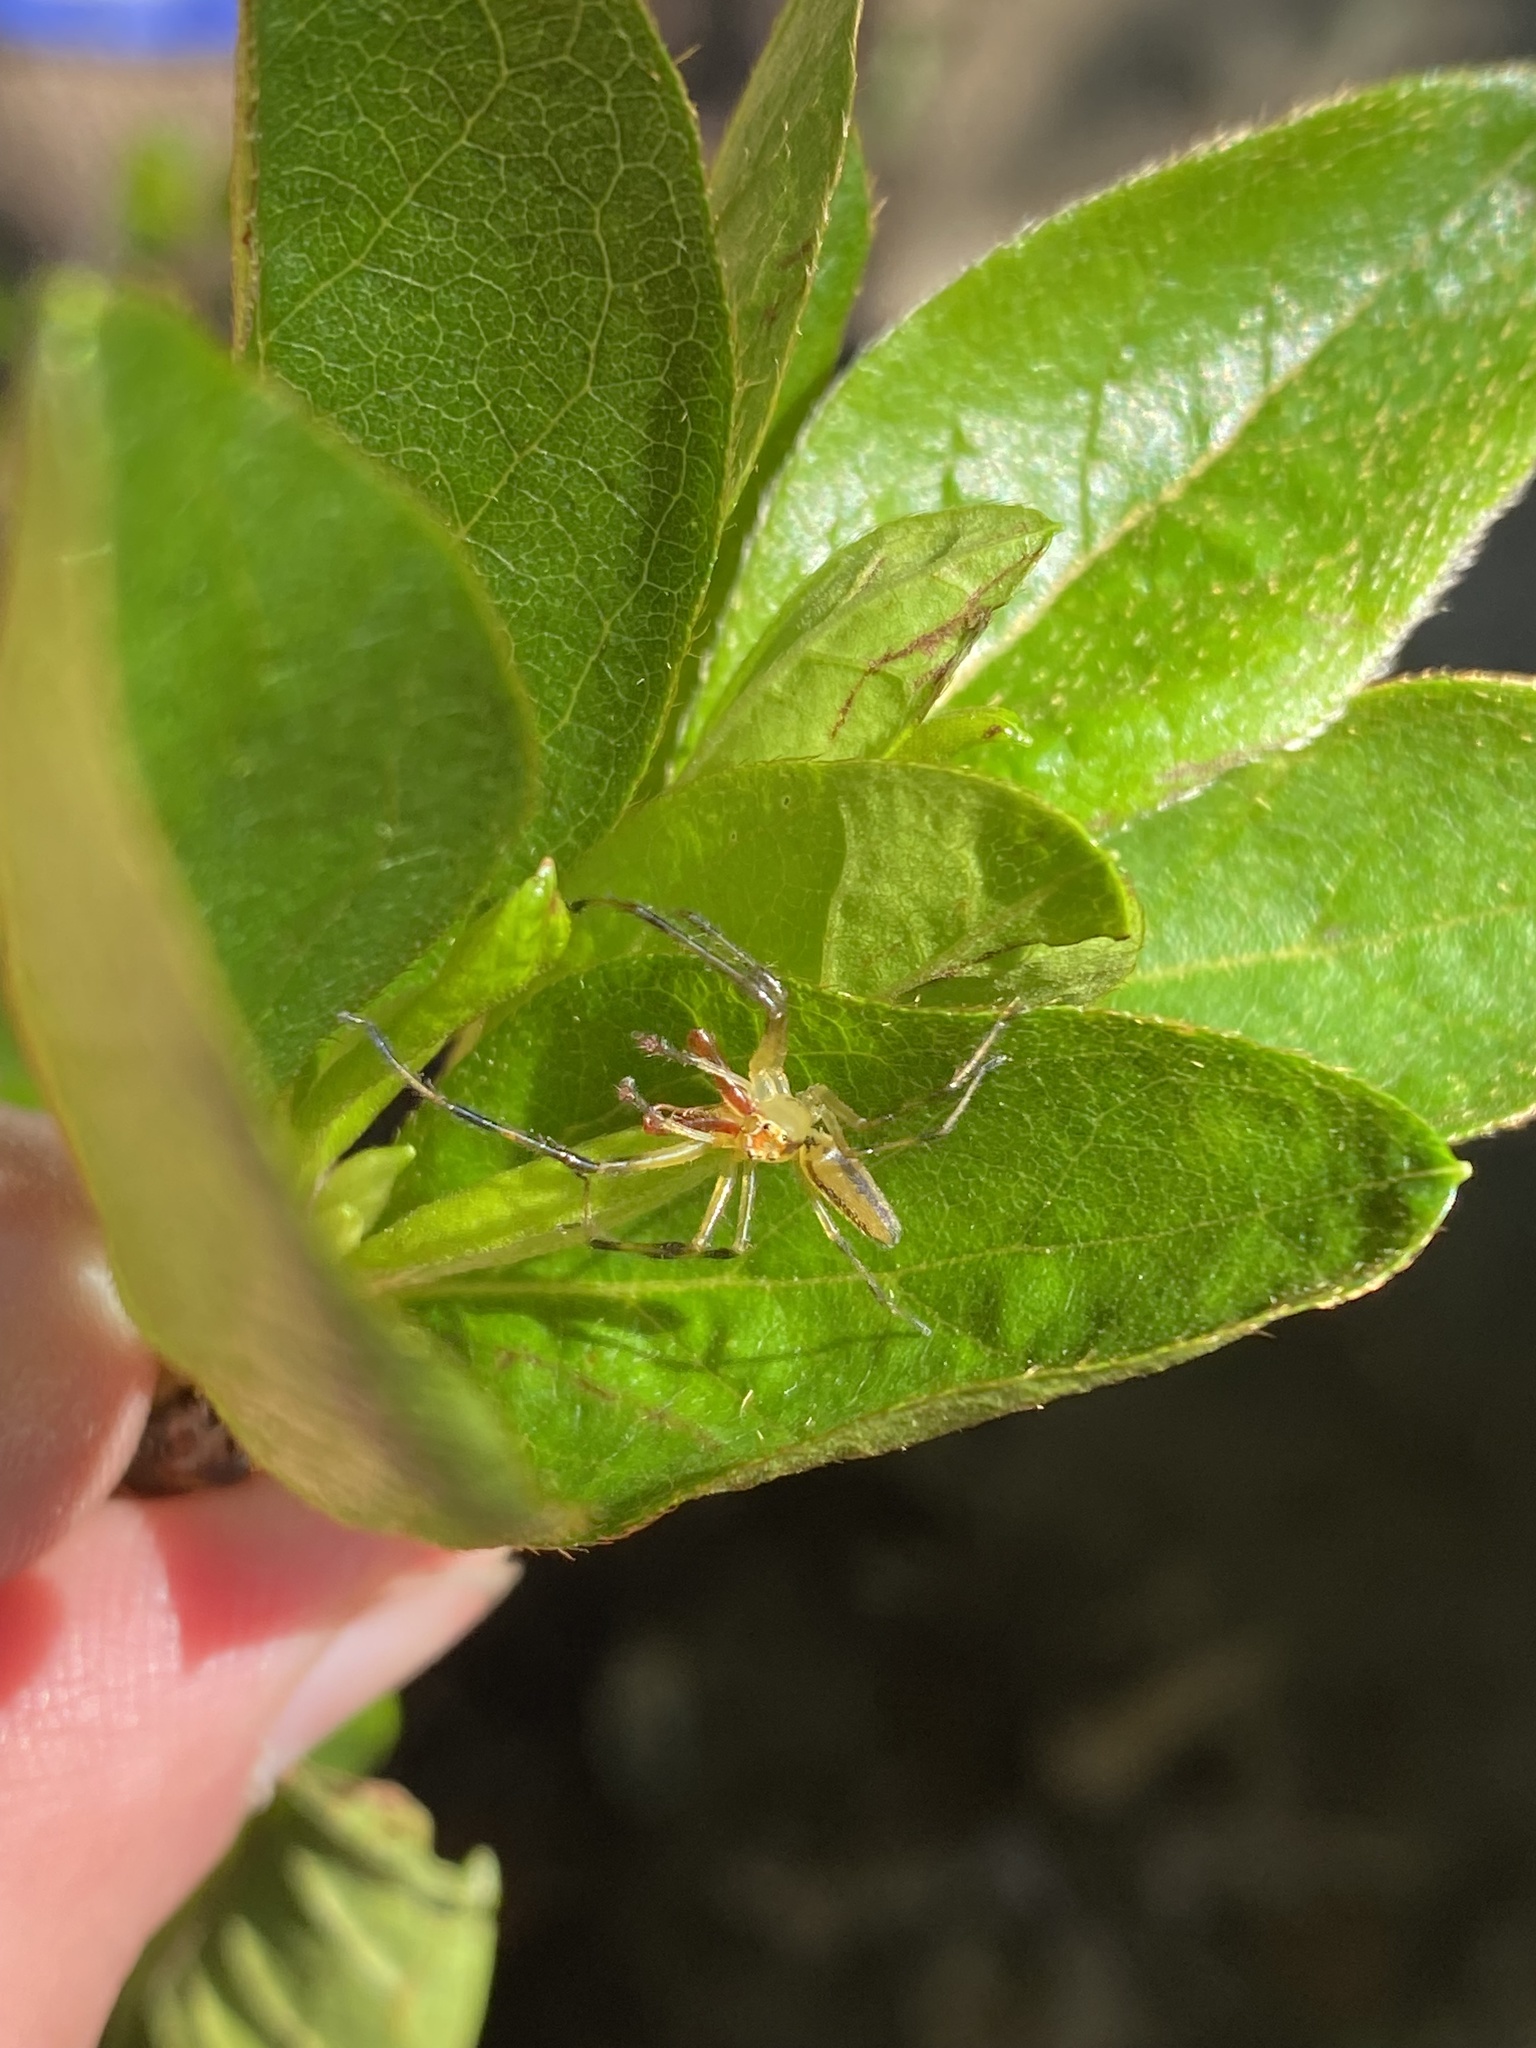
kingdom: Animalia
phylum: Arthropoda
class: Arachnida
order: Araneae
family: Salticidae
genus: Lyssomanes
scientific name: Lyssomanes viridis
